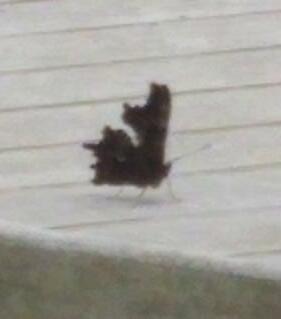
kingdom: Animalia
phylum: Arthropoda
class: Insecta
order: Lepidoptera
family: Nymphalidae
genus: Polygonia
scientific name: Polygonia c-album
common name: Comma
